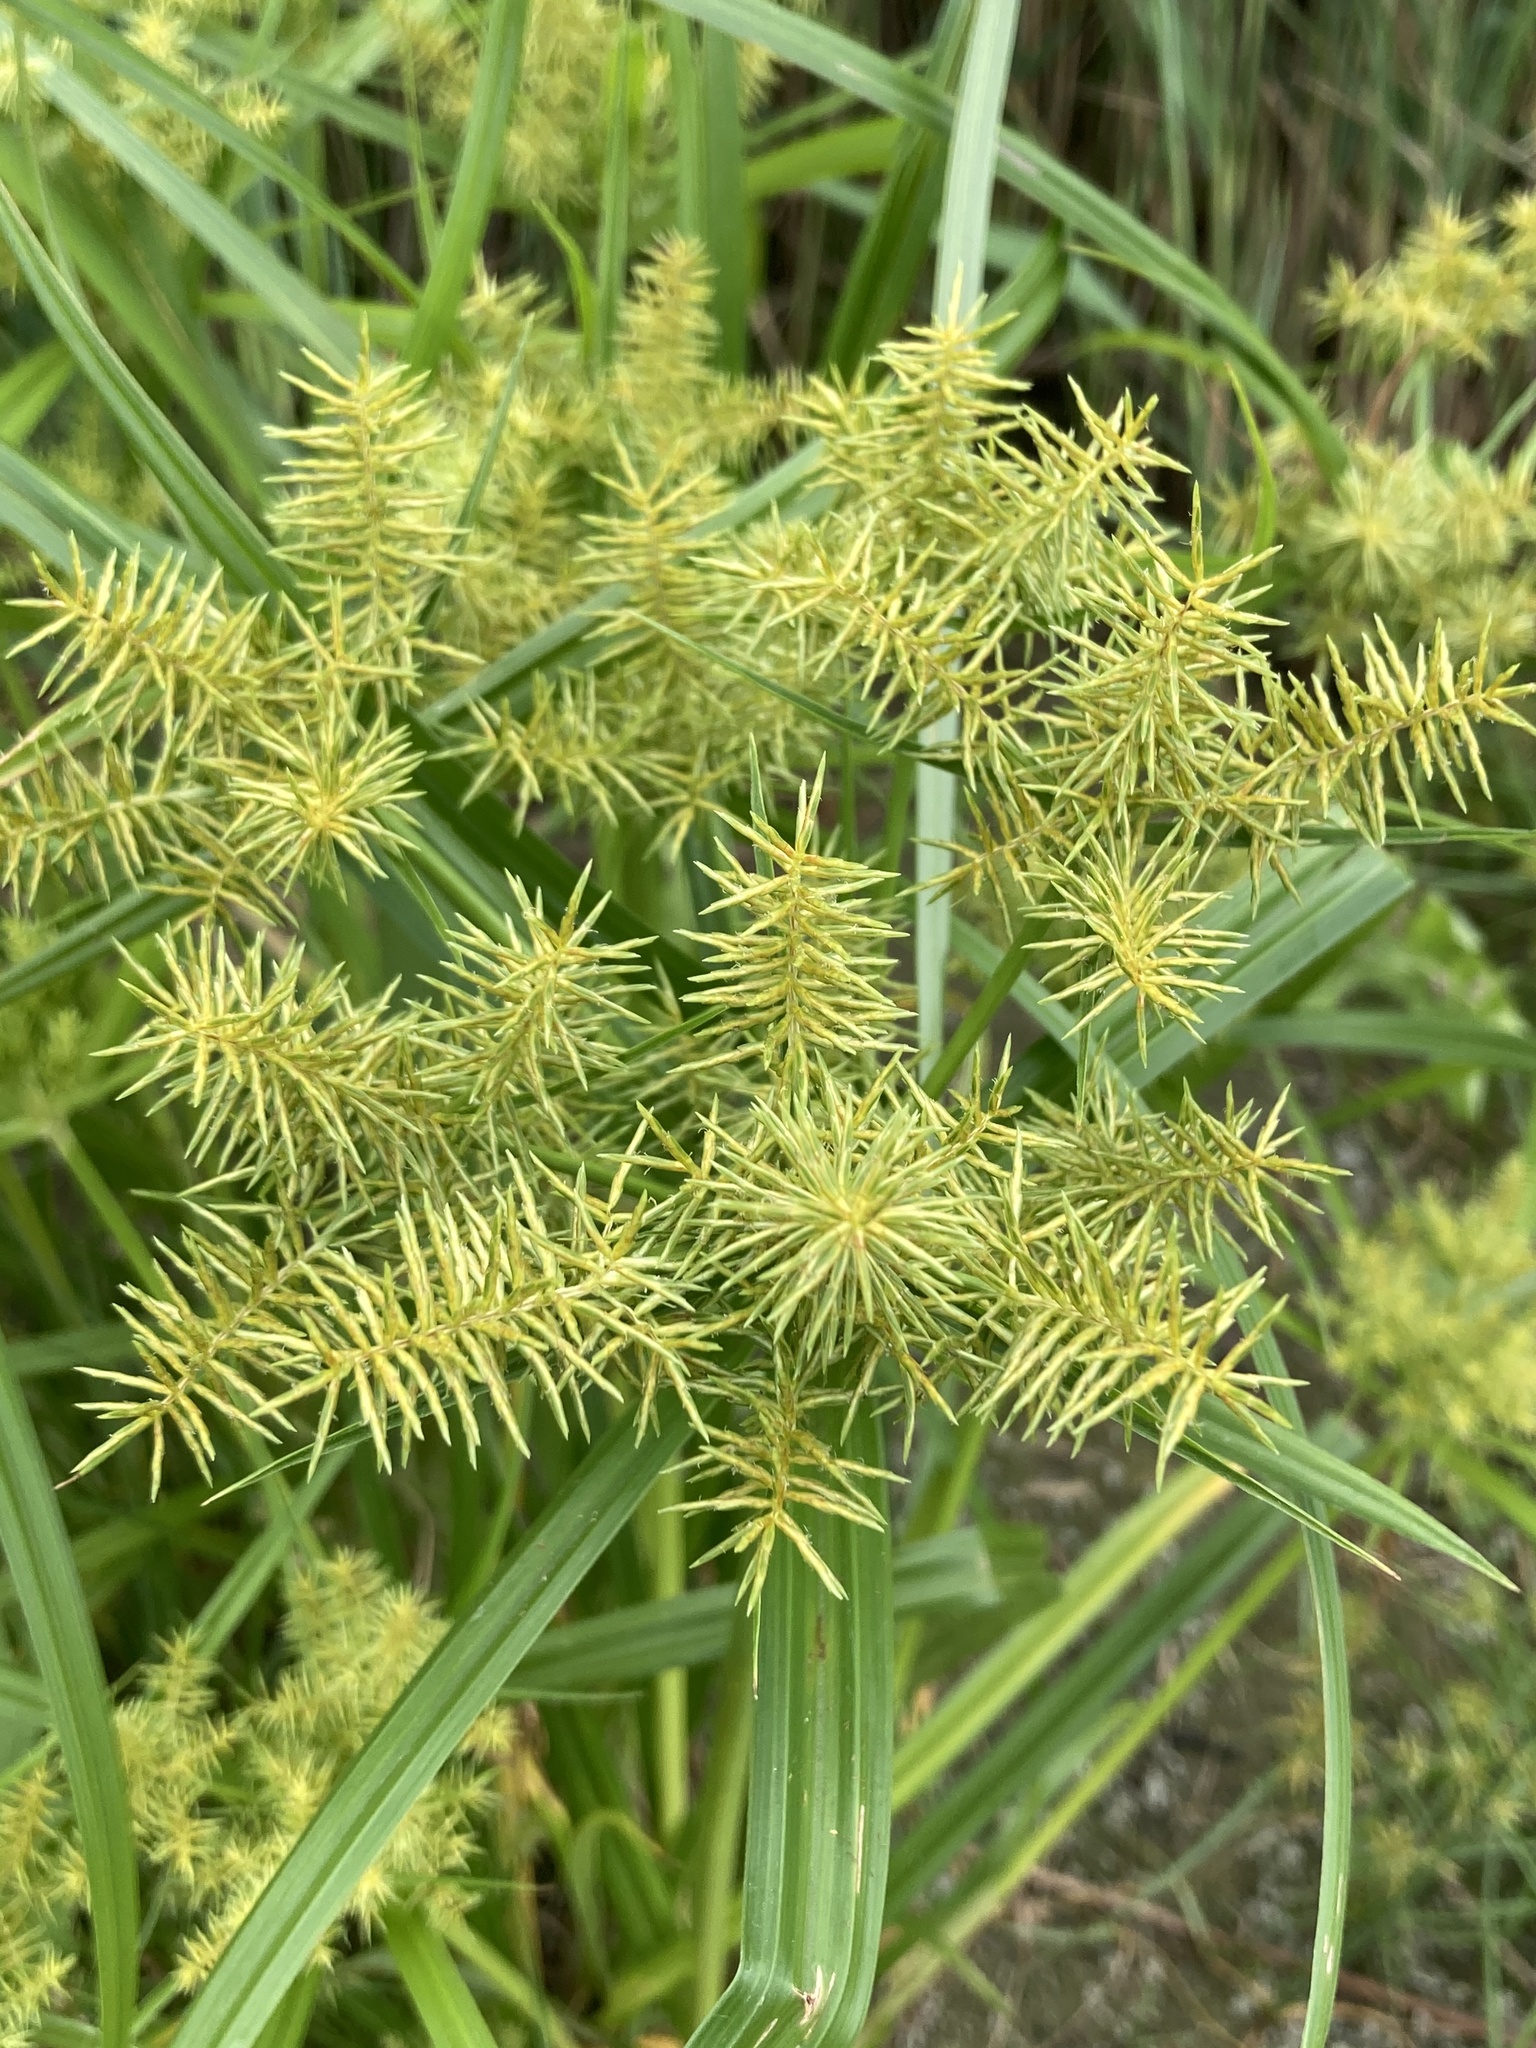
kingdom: Plantae
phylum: Tracheophyta
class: Liliopsida
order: Poales
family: Cyperaceae
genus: Cyperus
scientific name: Cyperus odoratus
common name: Fragrant flatsedge
